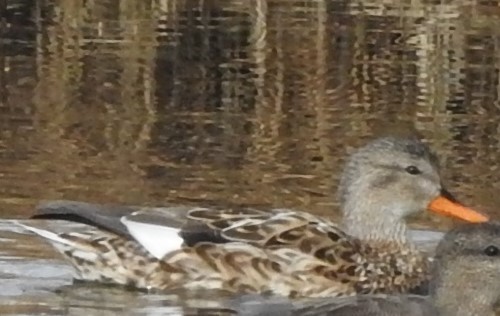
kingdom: Animalia
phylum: Chordata
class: Aves
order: Anseriformes
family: Anatidae
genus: Mareca
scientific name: Mareca strepera
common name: Gadwall
